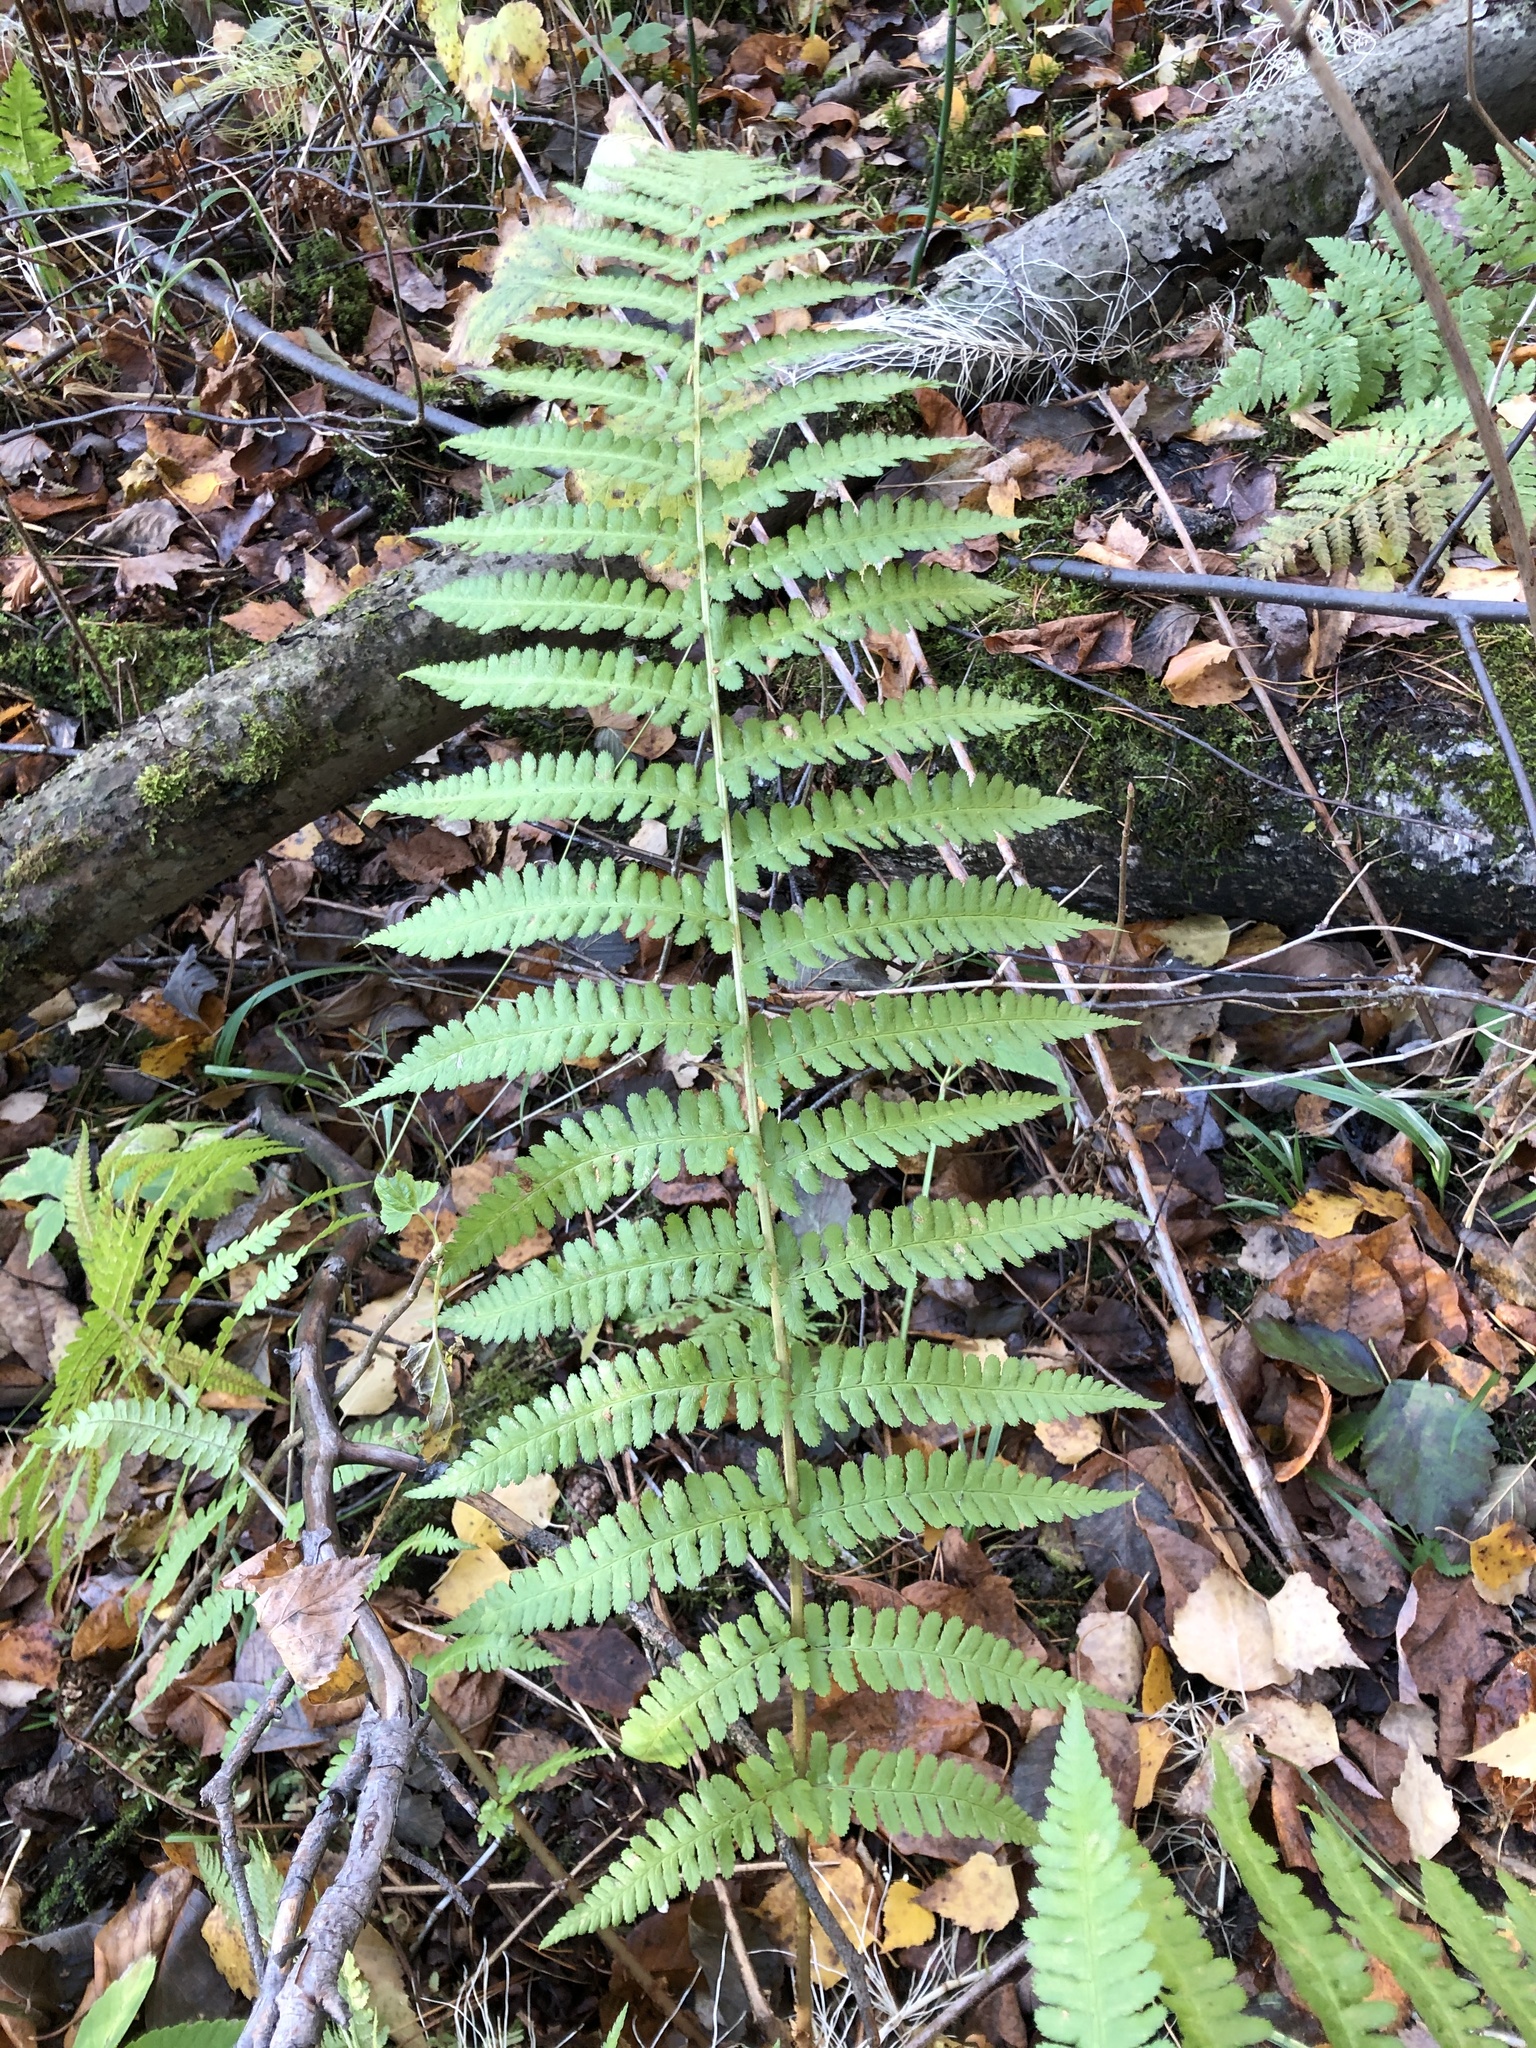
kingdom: Plantae
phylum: Tracheophyta
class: Polypodiopsida
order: Polypodiales
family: Dryopteridaceae
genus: Dryopteris
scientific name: Dryopteris filix-mas
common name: Male fern
